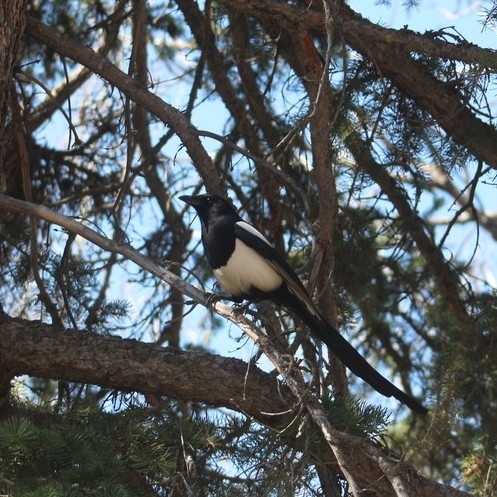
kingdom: Animalia
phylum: Chordata
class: Aves
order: Passeriformes
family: Corvidae
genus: Pica
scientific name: Pica hudsonia
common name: Black-billed magpie
